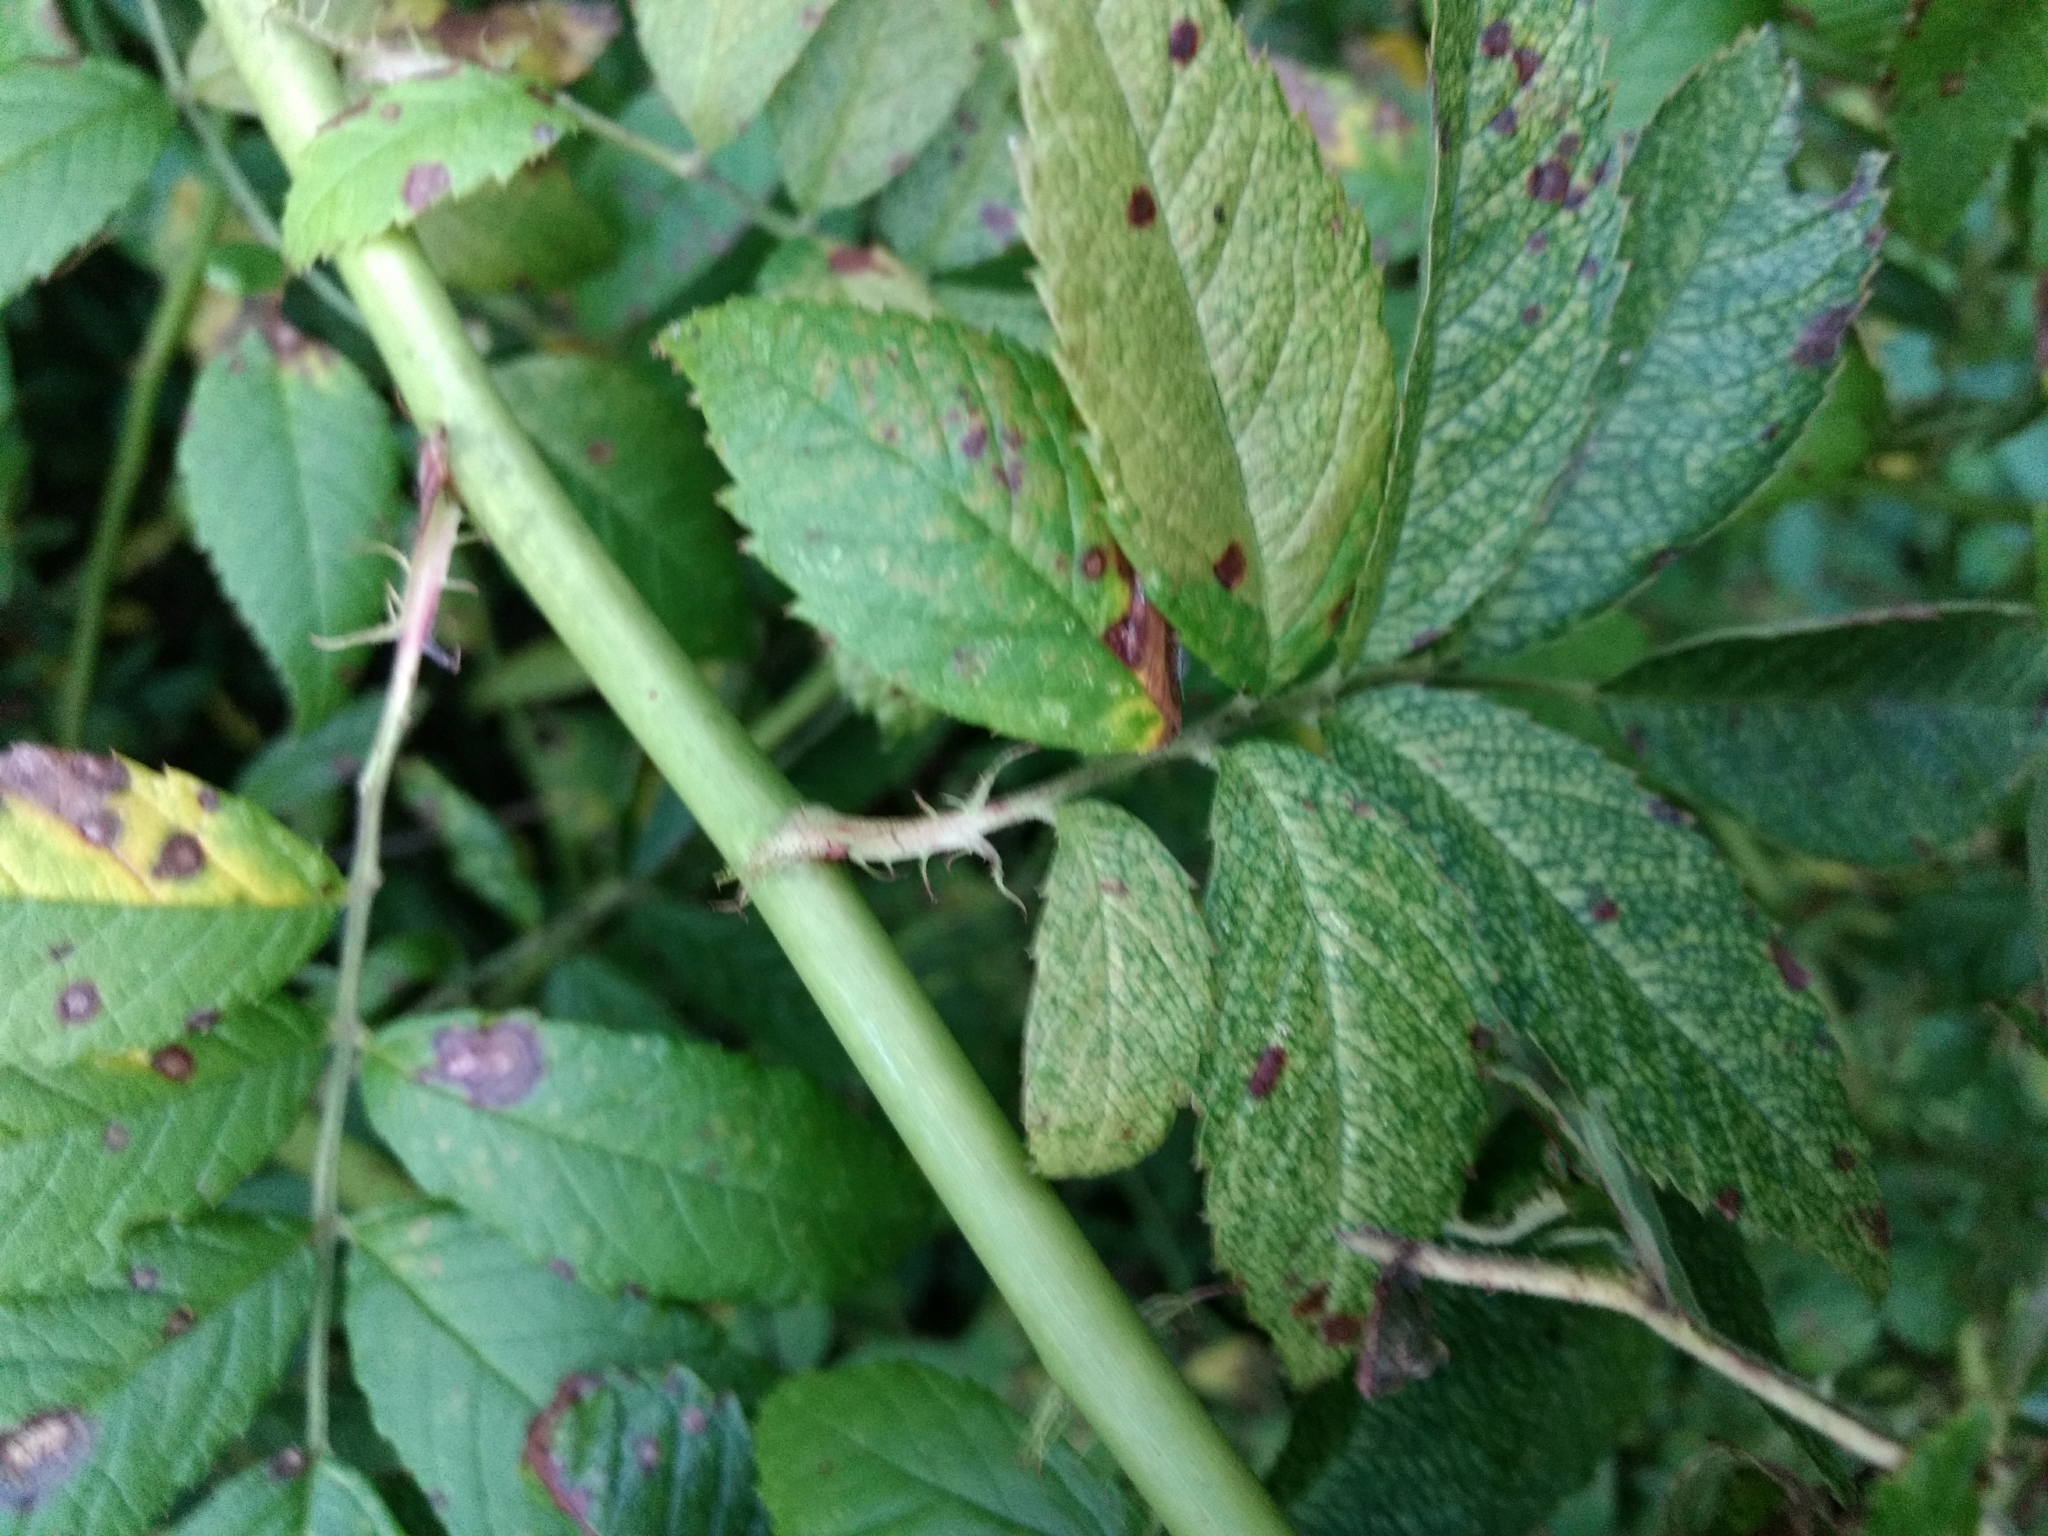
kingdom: Plantae
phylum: Tracheophyta
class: Magnoliopsida
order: Rosales
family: Rosaceae
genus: Rosa
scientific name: Rosa multiflora
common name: Multiflora rose
